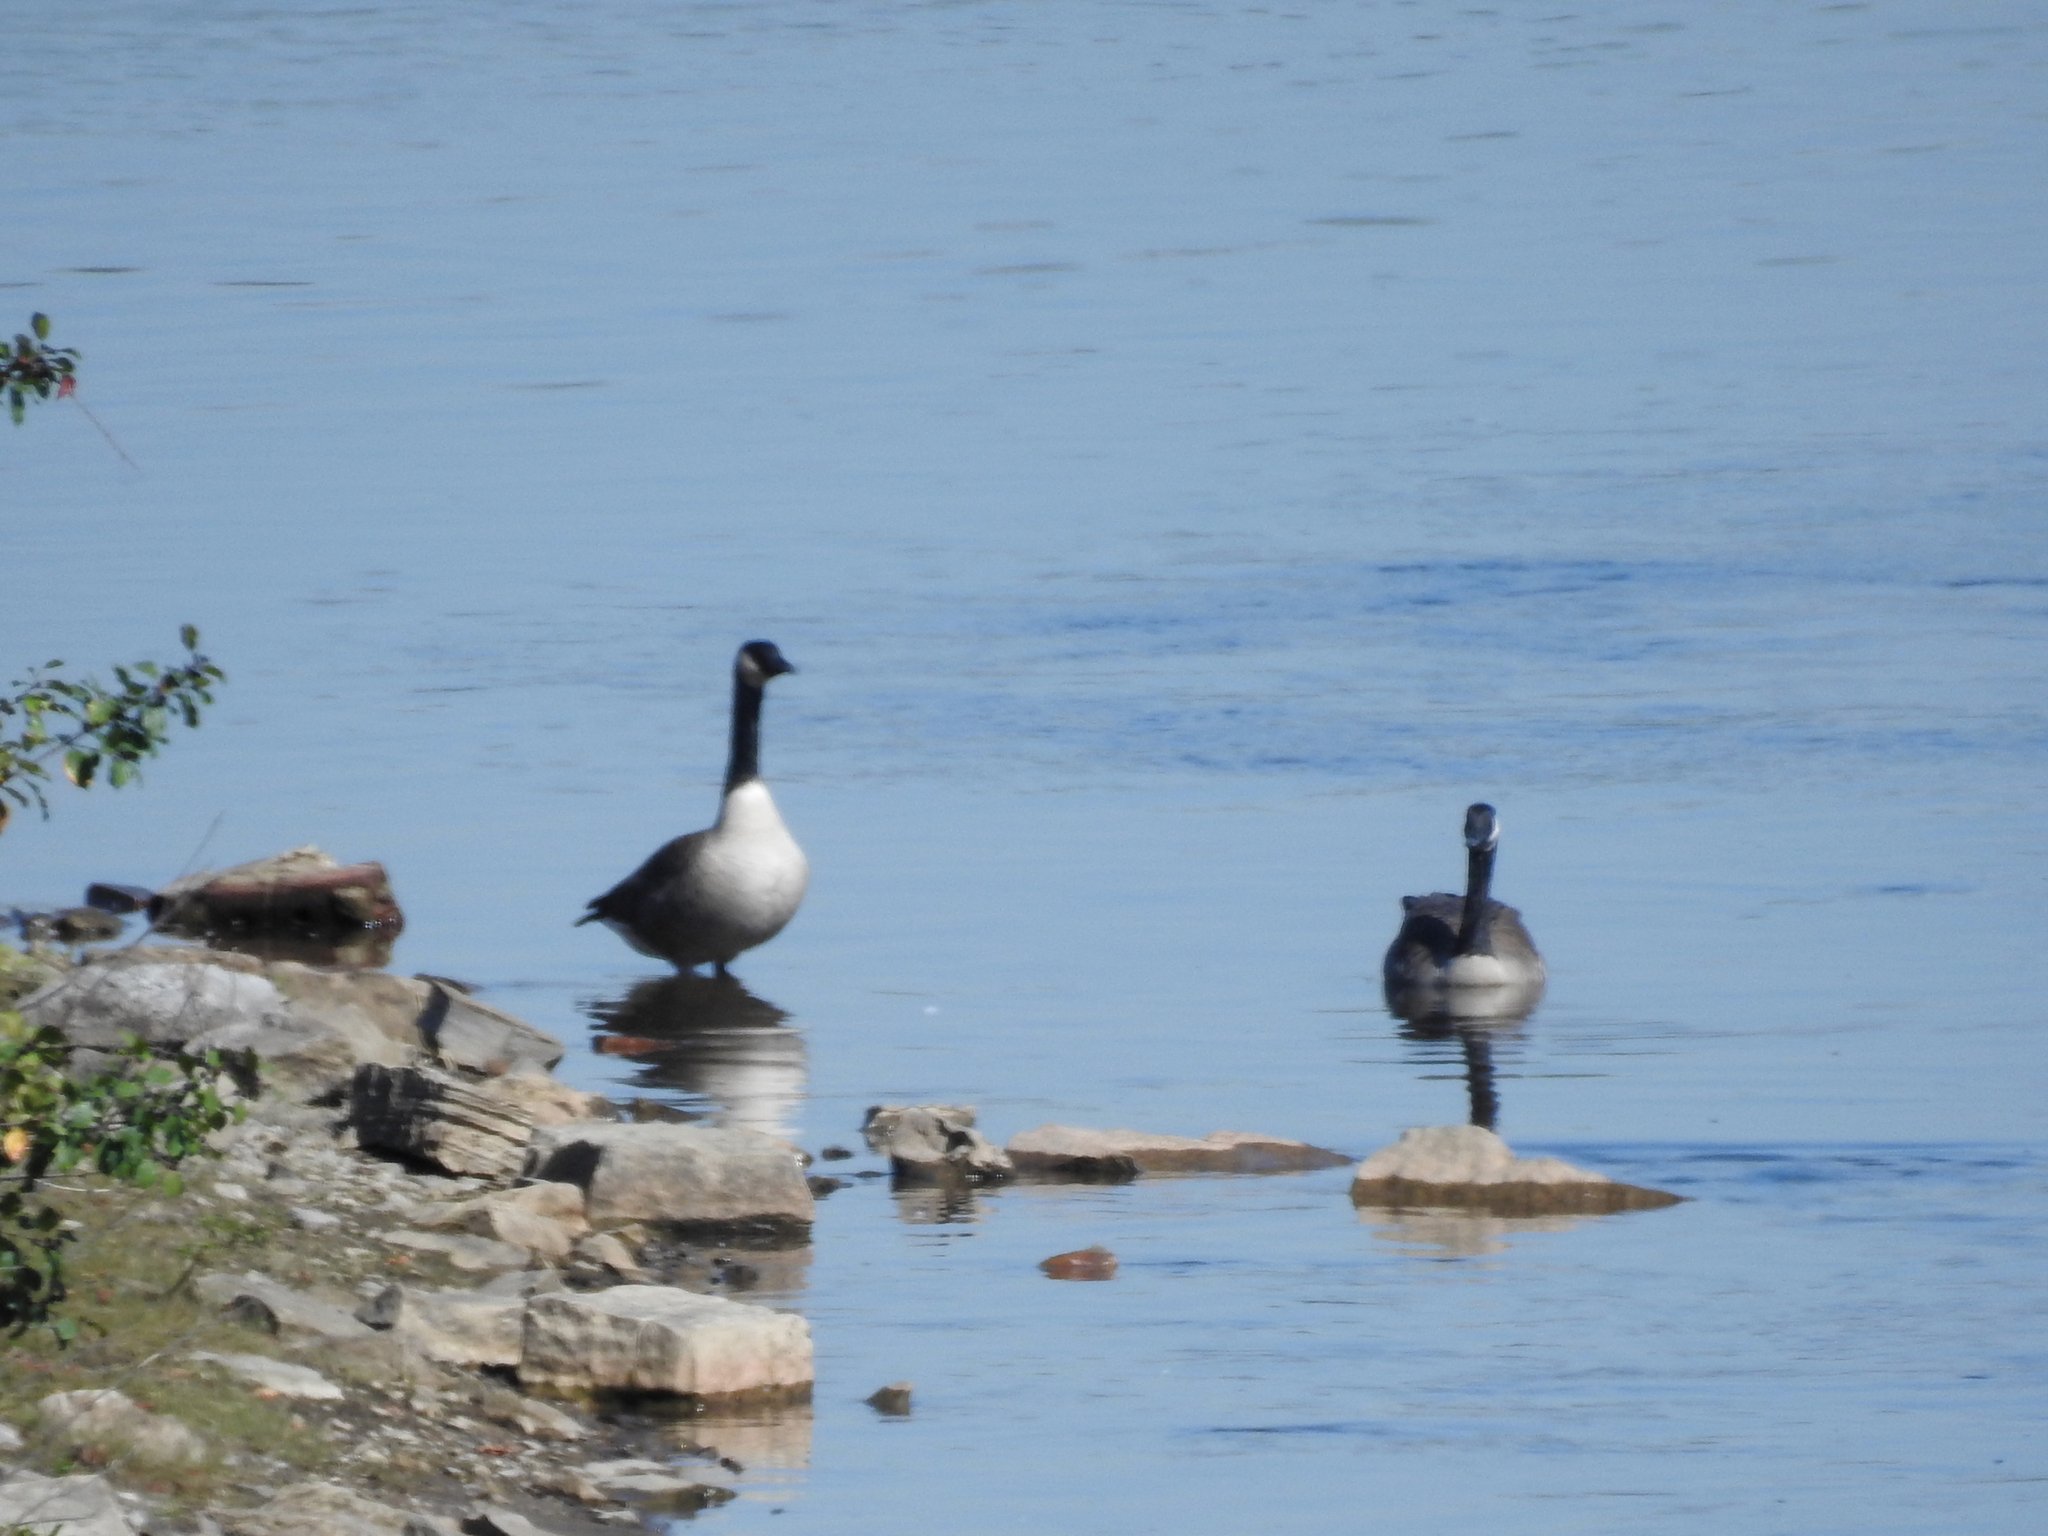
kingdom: Animalia
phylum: Chordata
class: Aves
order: Anseriformes
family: Anatidae
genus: Branta
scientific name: Branta canadensis
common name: Canada goose
